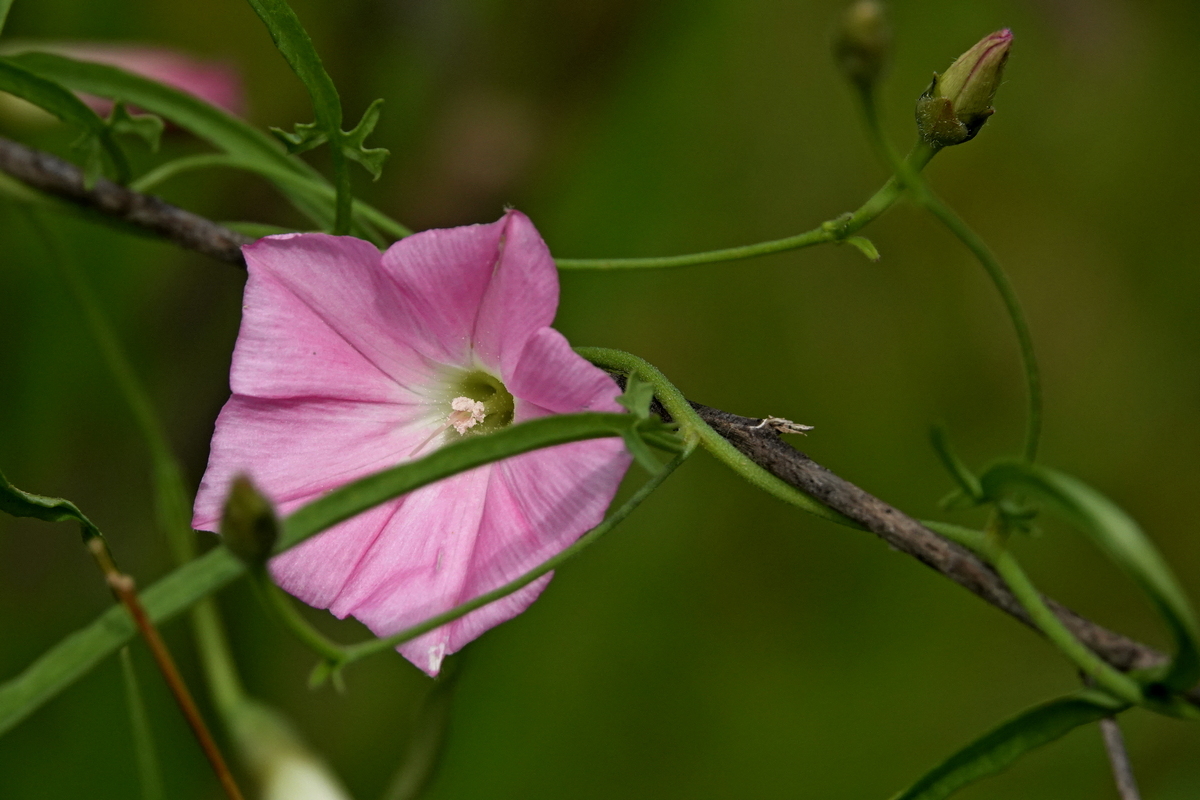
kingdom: Plantae
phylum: Tracheophyta
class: Magnoliopsida
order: Solanales
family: Convolvulaceae
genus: Convolvulus
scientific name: Convolvulus angustissimus
